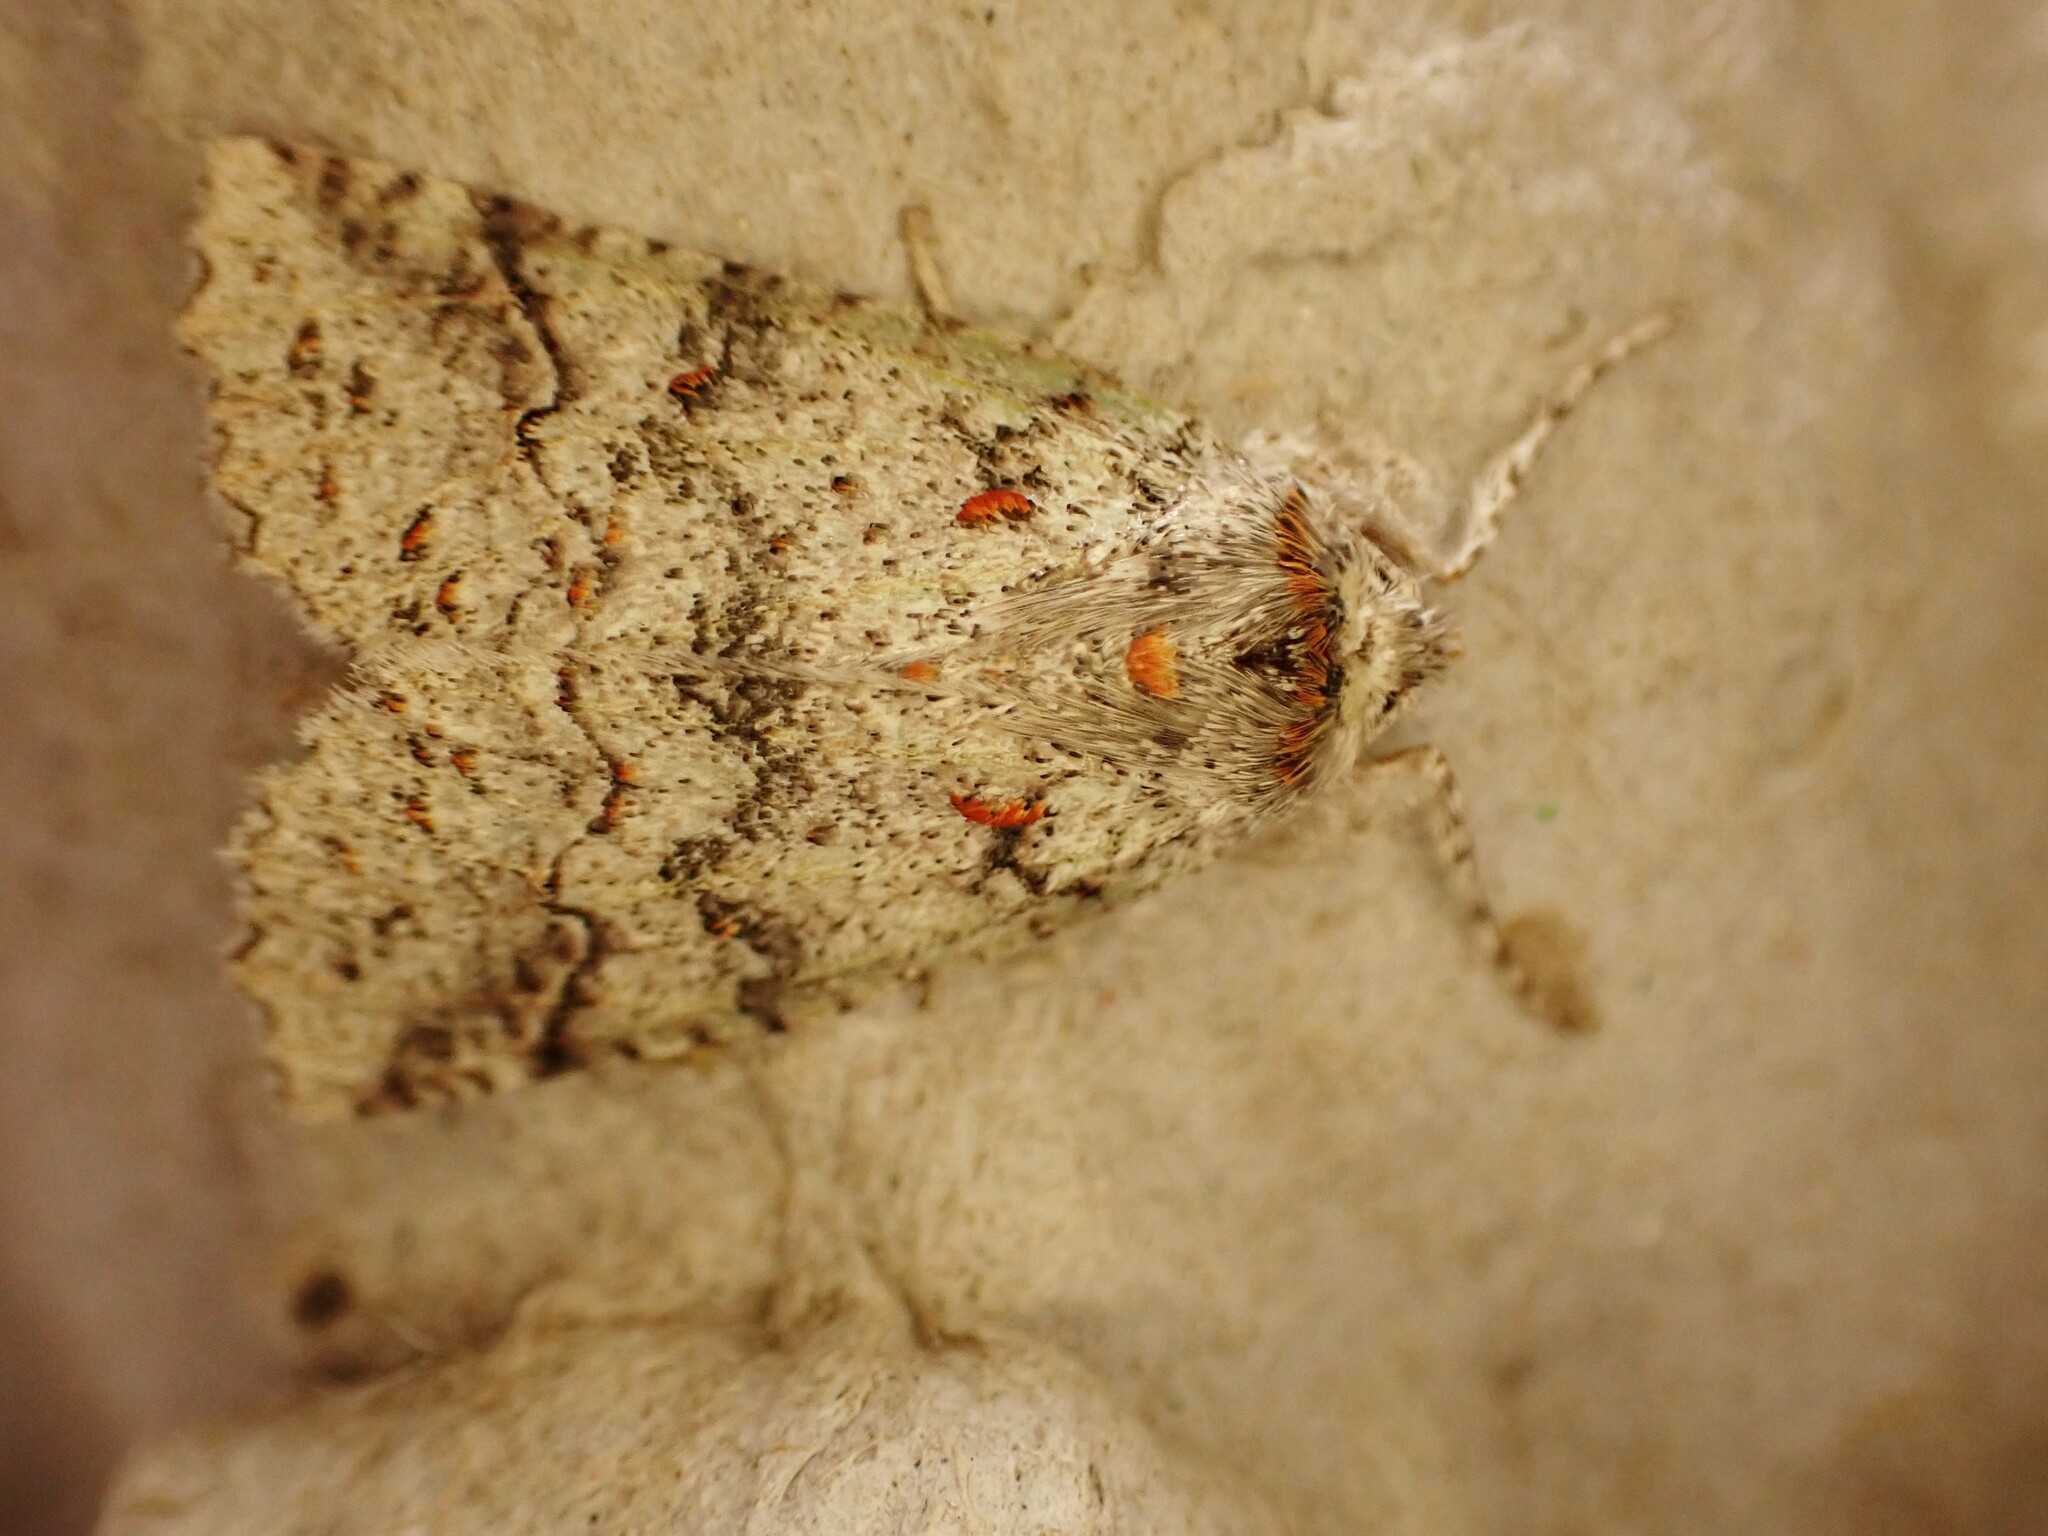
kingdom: Animalia
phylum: Arthropoda
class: Insecta
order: Lepidoptera
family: Geometridae
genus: Declana
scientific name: Declana floccosa
